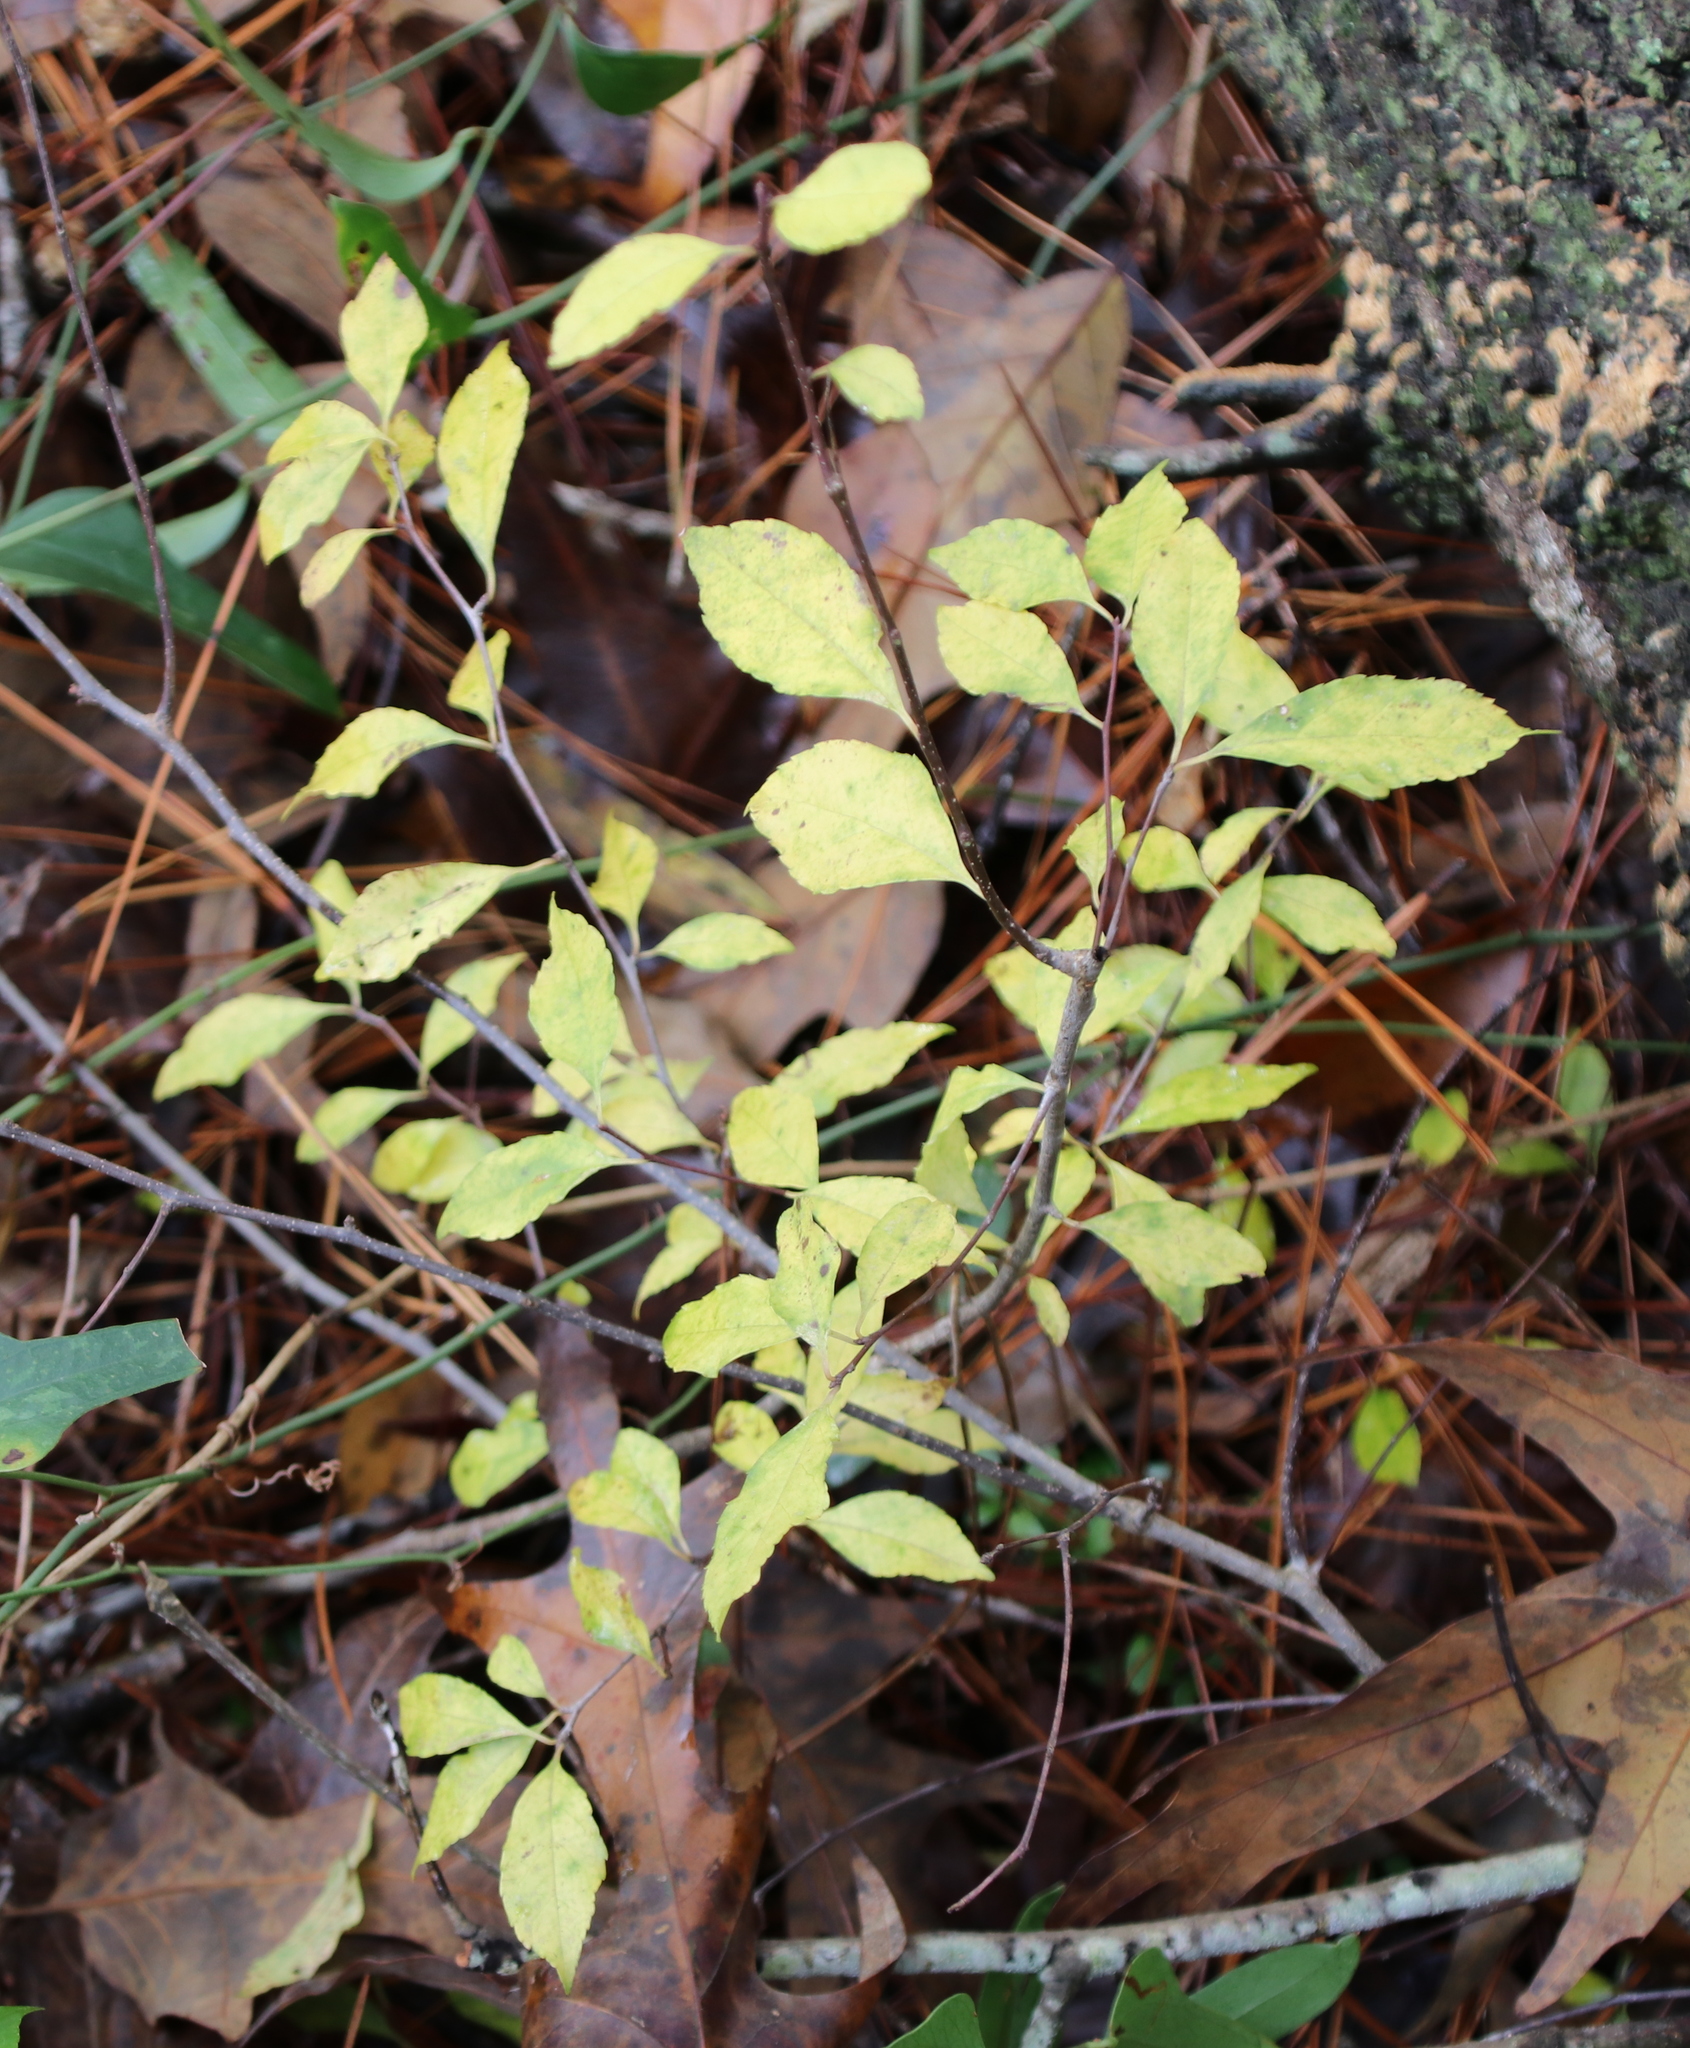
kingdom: Plantae
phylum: Tracheophyta
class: Magnoliopsida
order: Aquifoliales
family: Aquifoliaceae
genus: Ilex
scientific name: Ilex decidua
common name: Possum-haw
